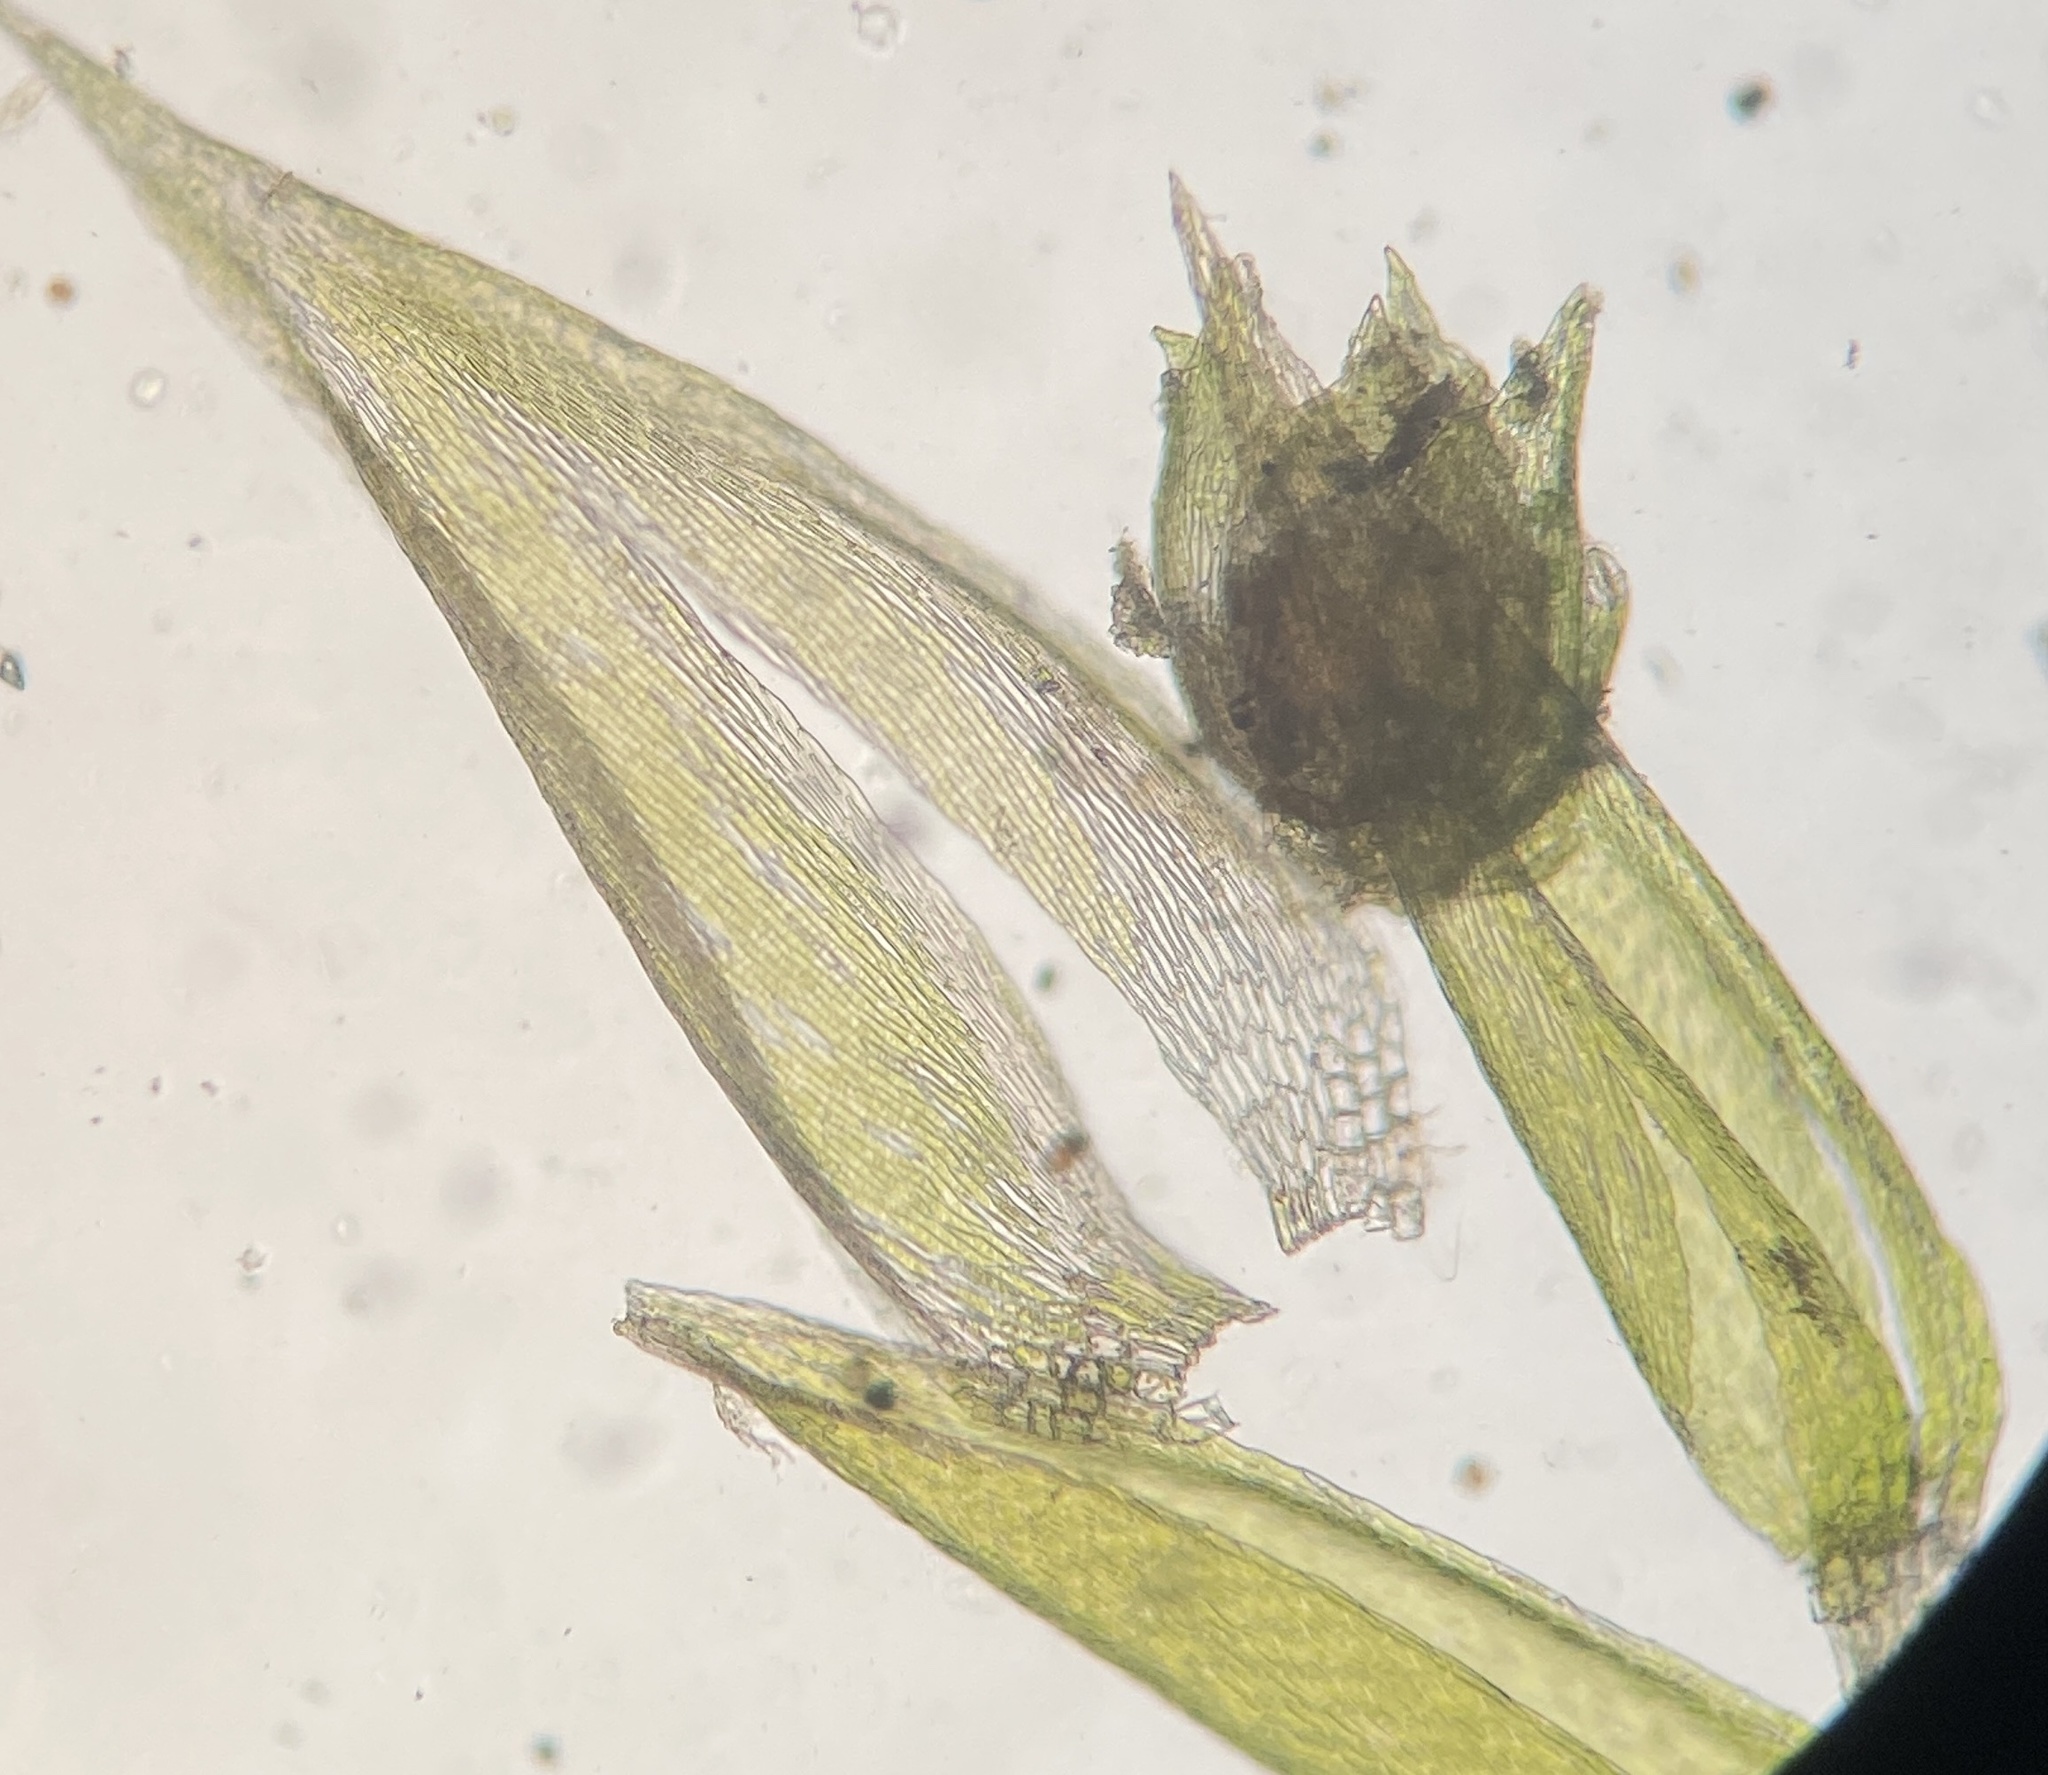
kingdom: Plantae
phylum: Bryophyta
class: Bryopsida
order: Hypnales
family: Pylaisiadelphaceae
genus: Platygyrium
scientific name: Platygyrium repens
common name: Flat-brocade moss
